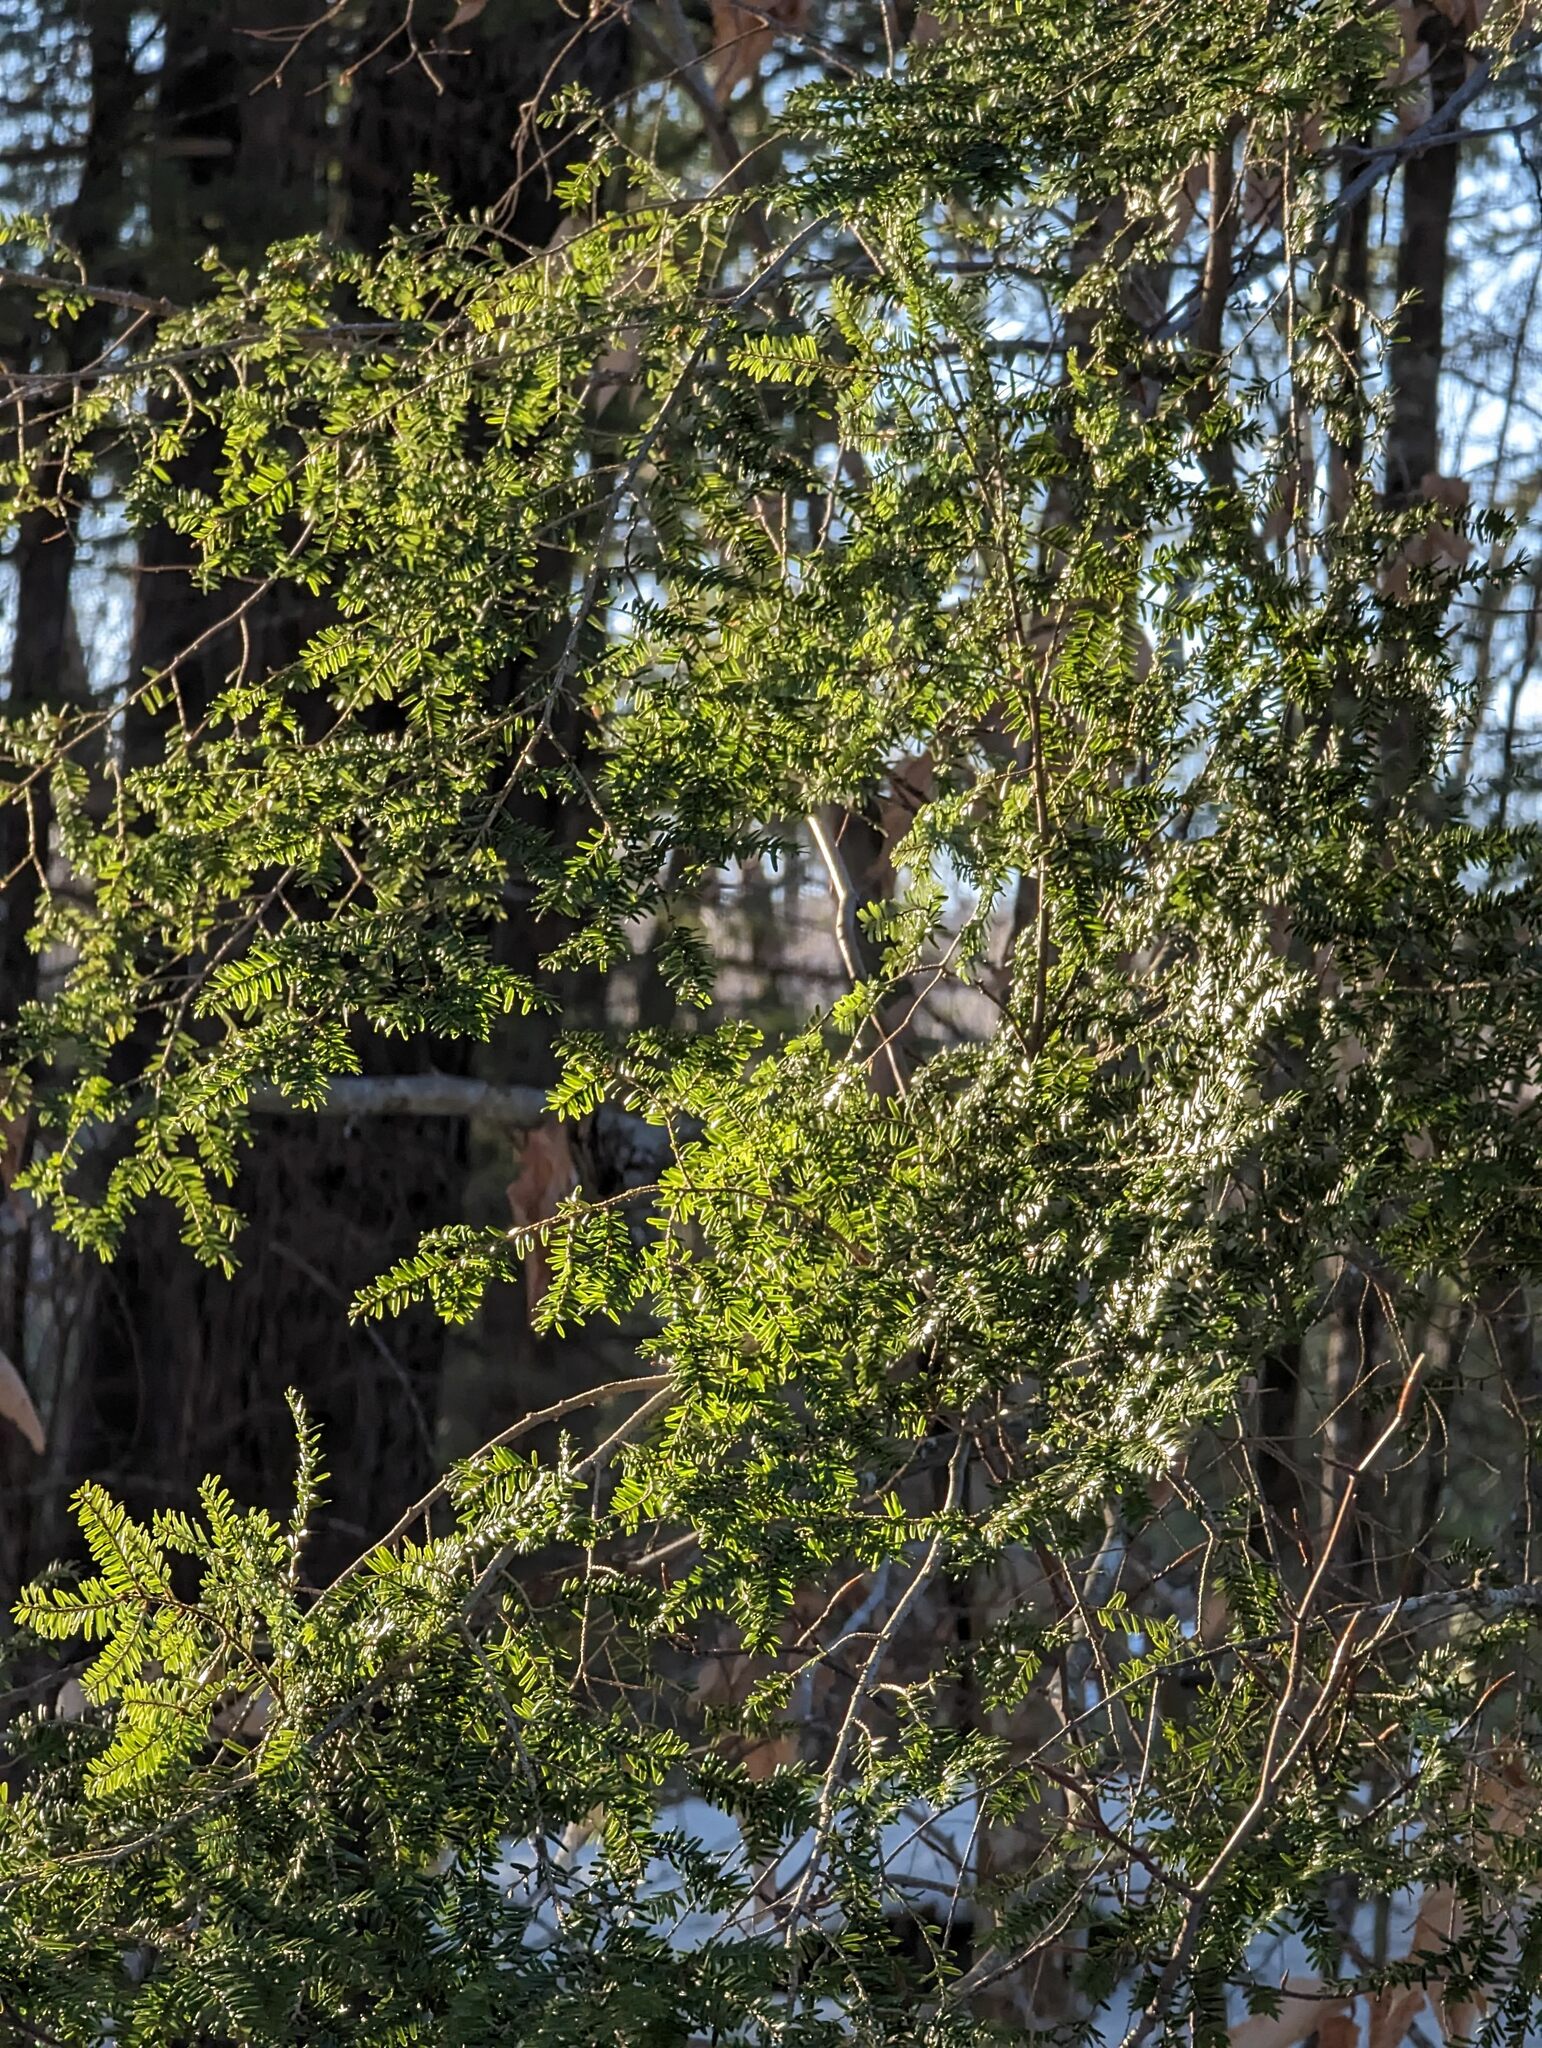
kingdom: Plantae
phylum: Tracheophyta
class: Pinopsida
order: Pinales
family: Pinaceae
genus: Tsuga
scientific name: Tsuga canadensis
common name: Eastern hemlock
